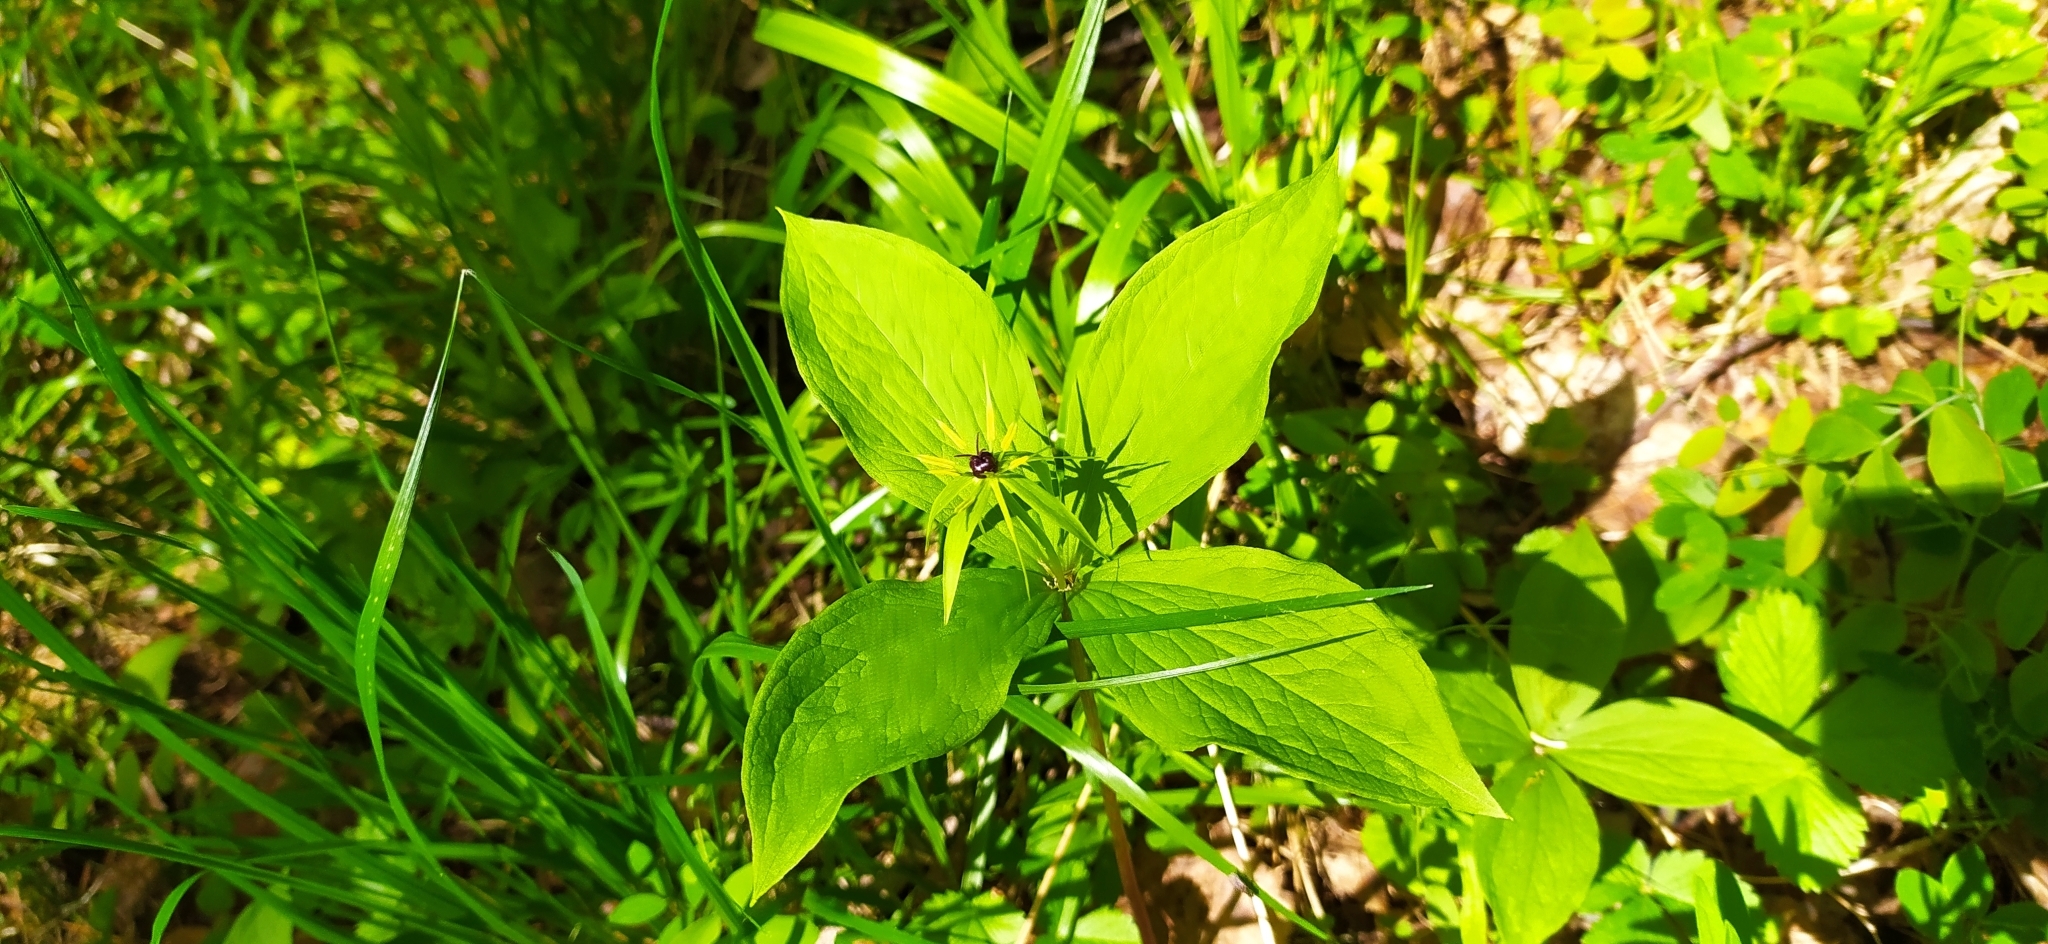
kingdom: Plantae
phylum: Tracheophyta
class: Liliopsida
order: Liliales
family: Melanthiaceae
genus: Paris
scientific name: Paris quadrifolia
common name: Herb-paris
